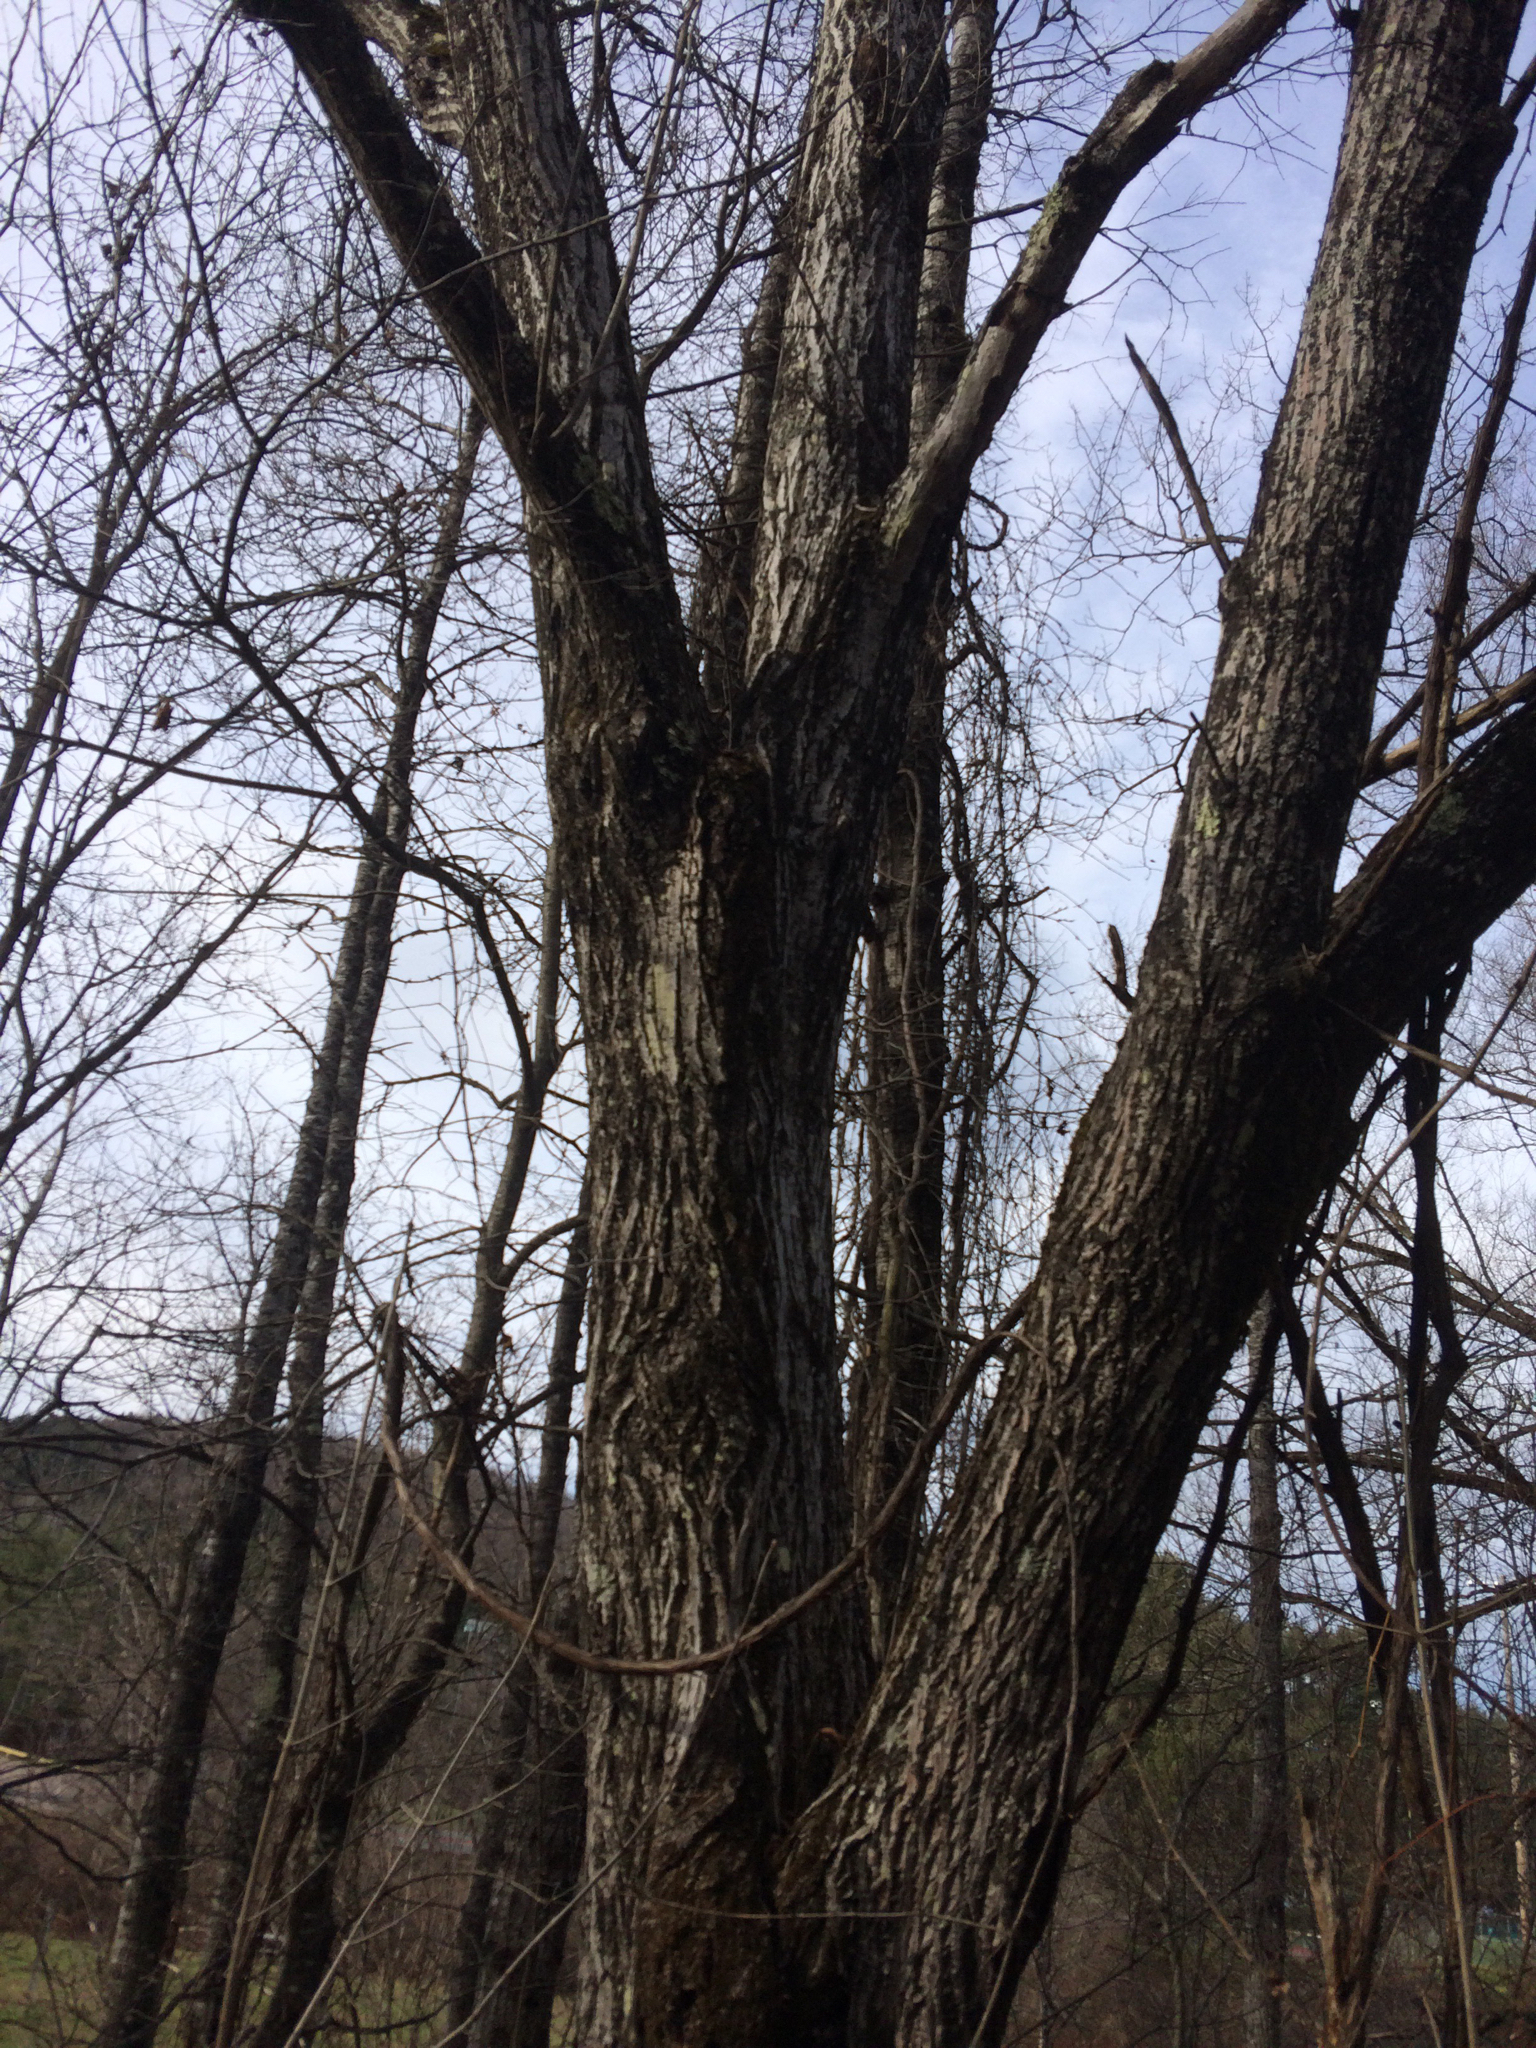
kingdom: Plantae
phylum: Tracheophyta
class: Magnoliopsida
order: Fagales
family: Juglandaceae
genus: Juglans
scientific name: Juglans cinerea
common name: Butternut
